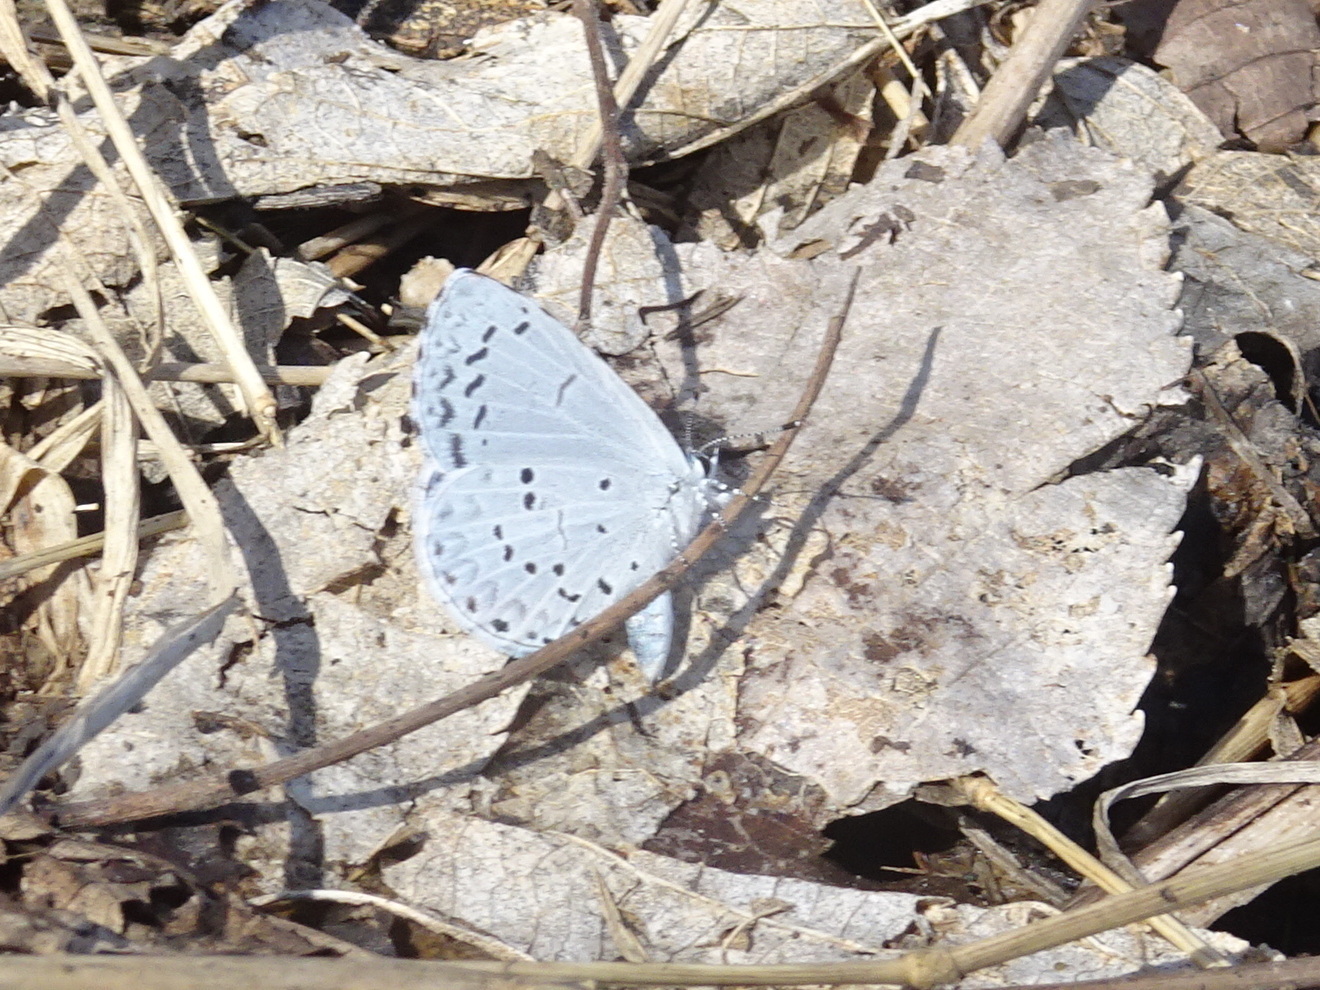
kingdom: Animalia
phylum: Arthropoda
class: Insecta
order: Lepidoptera
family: Lycaenidae
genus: Celastrina
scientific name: Celastrina ladon
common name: Spring azure
